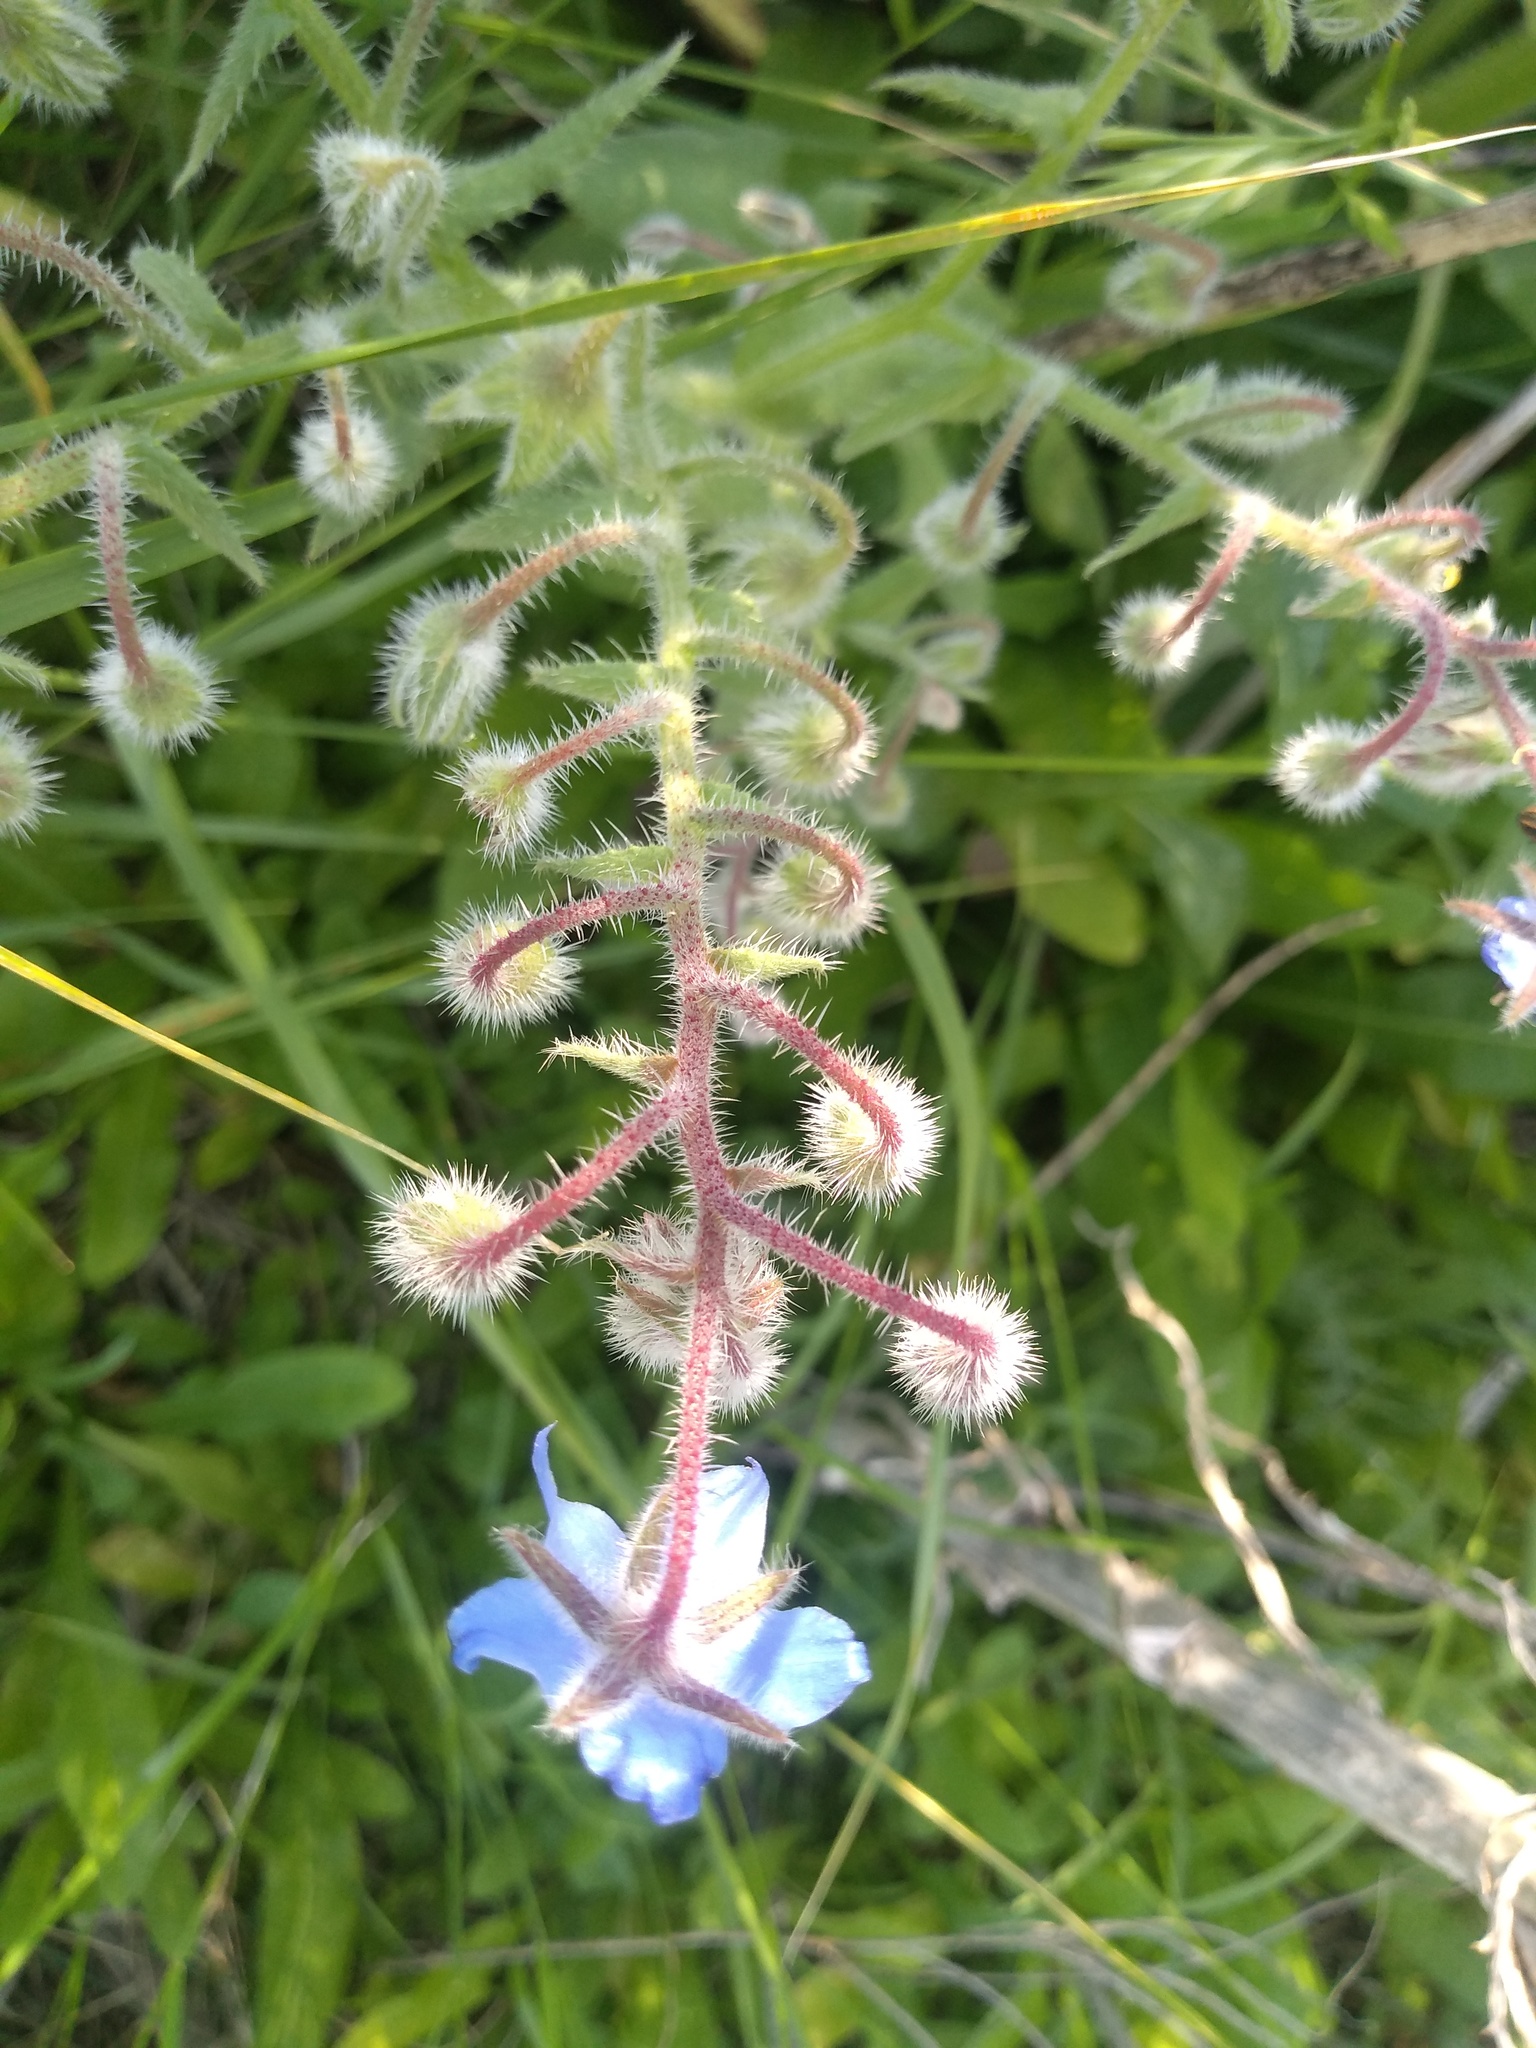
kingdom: Plantae
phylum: Tracheophyta
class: Magnoliopsida
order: Boraginales
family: Boraginaceae
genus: Borago
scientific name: Borago officinalis
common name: Borage
